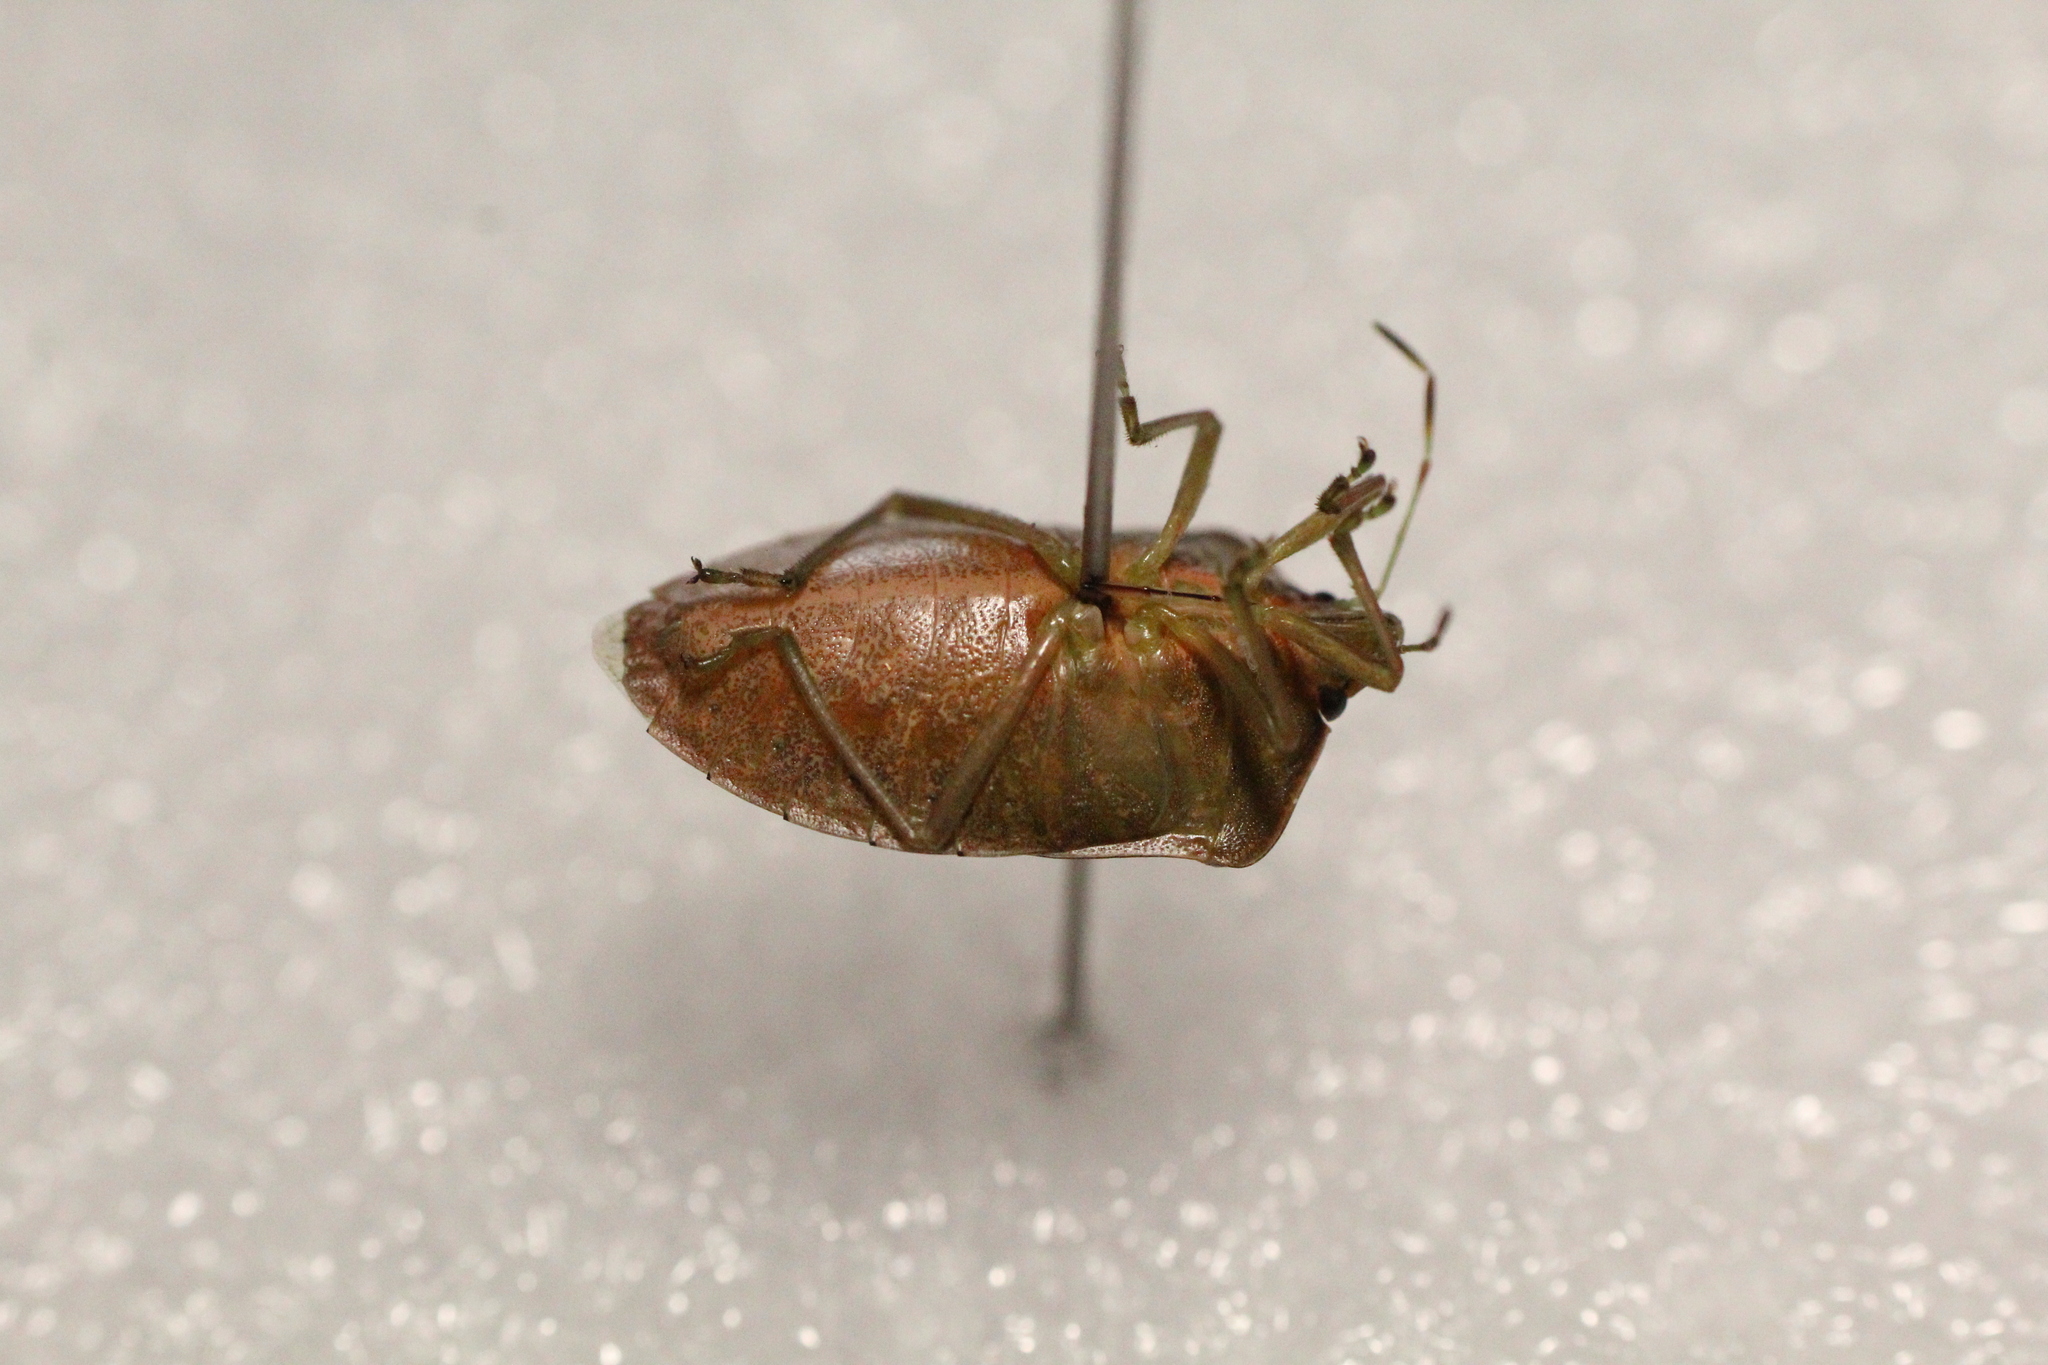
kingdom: Animalia
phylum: Arthropoda
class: Insecta
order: Hemiptera
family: Pentatomidae
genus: Nezara
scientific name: Nezara viridula
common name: Southern green stink bug
